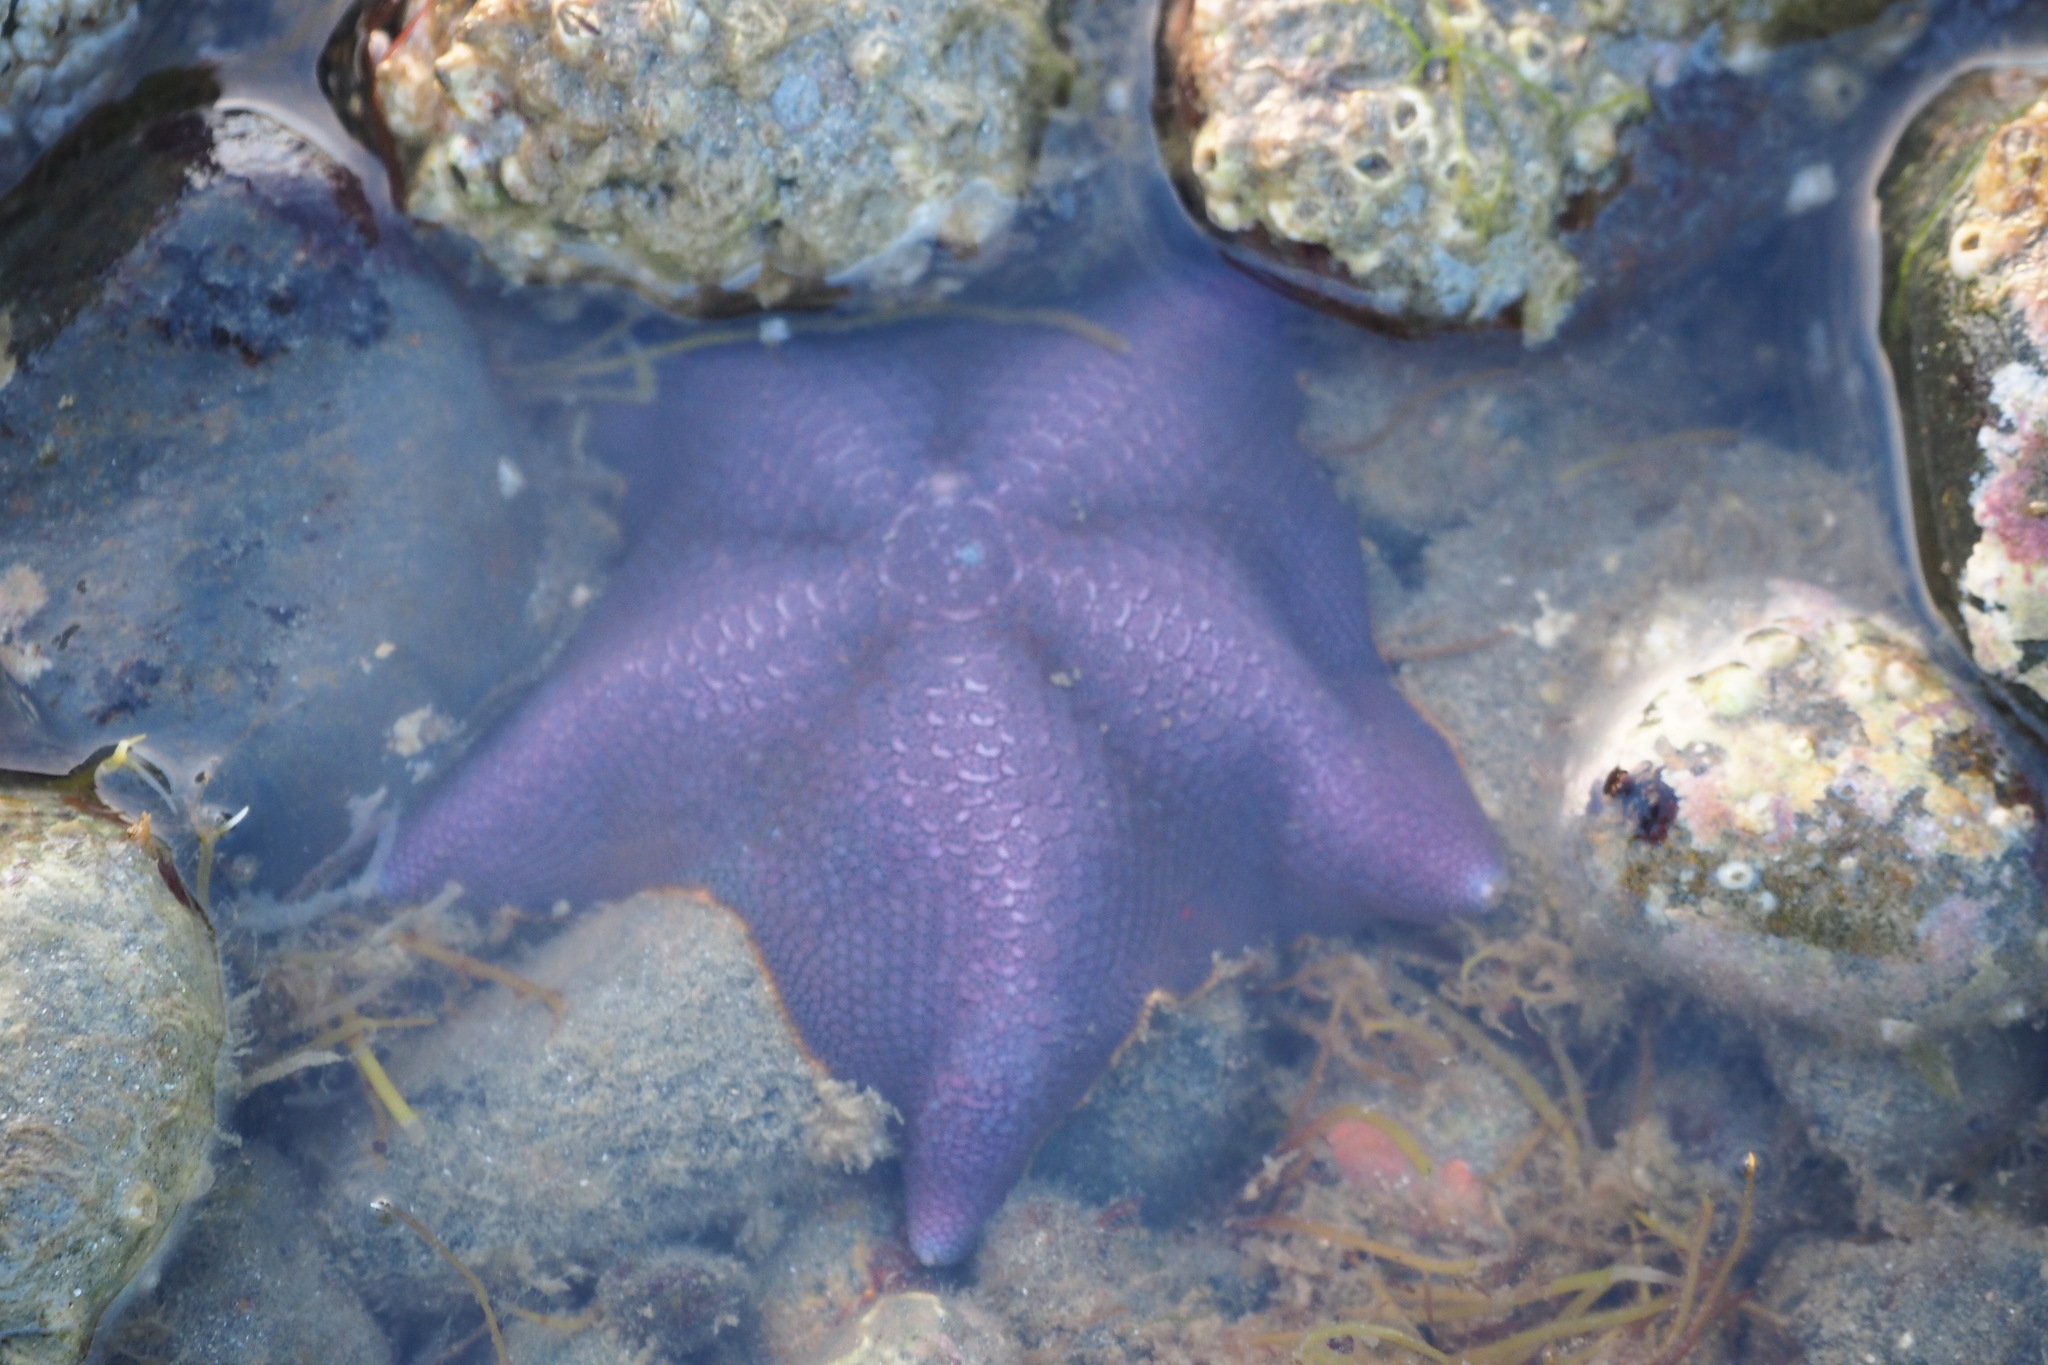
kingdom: Animalia
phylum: Echinodermata
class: Asteroidea
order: Valvatida
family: Asterinidae
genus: Patiria
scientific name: Patiria miniata
